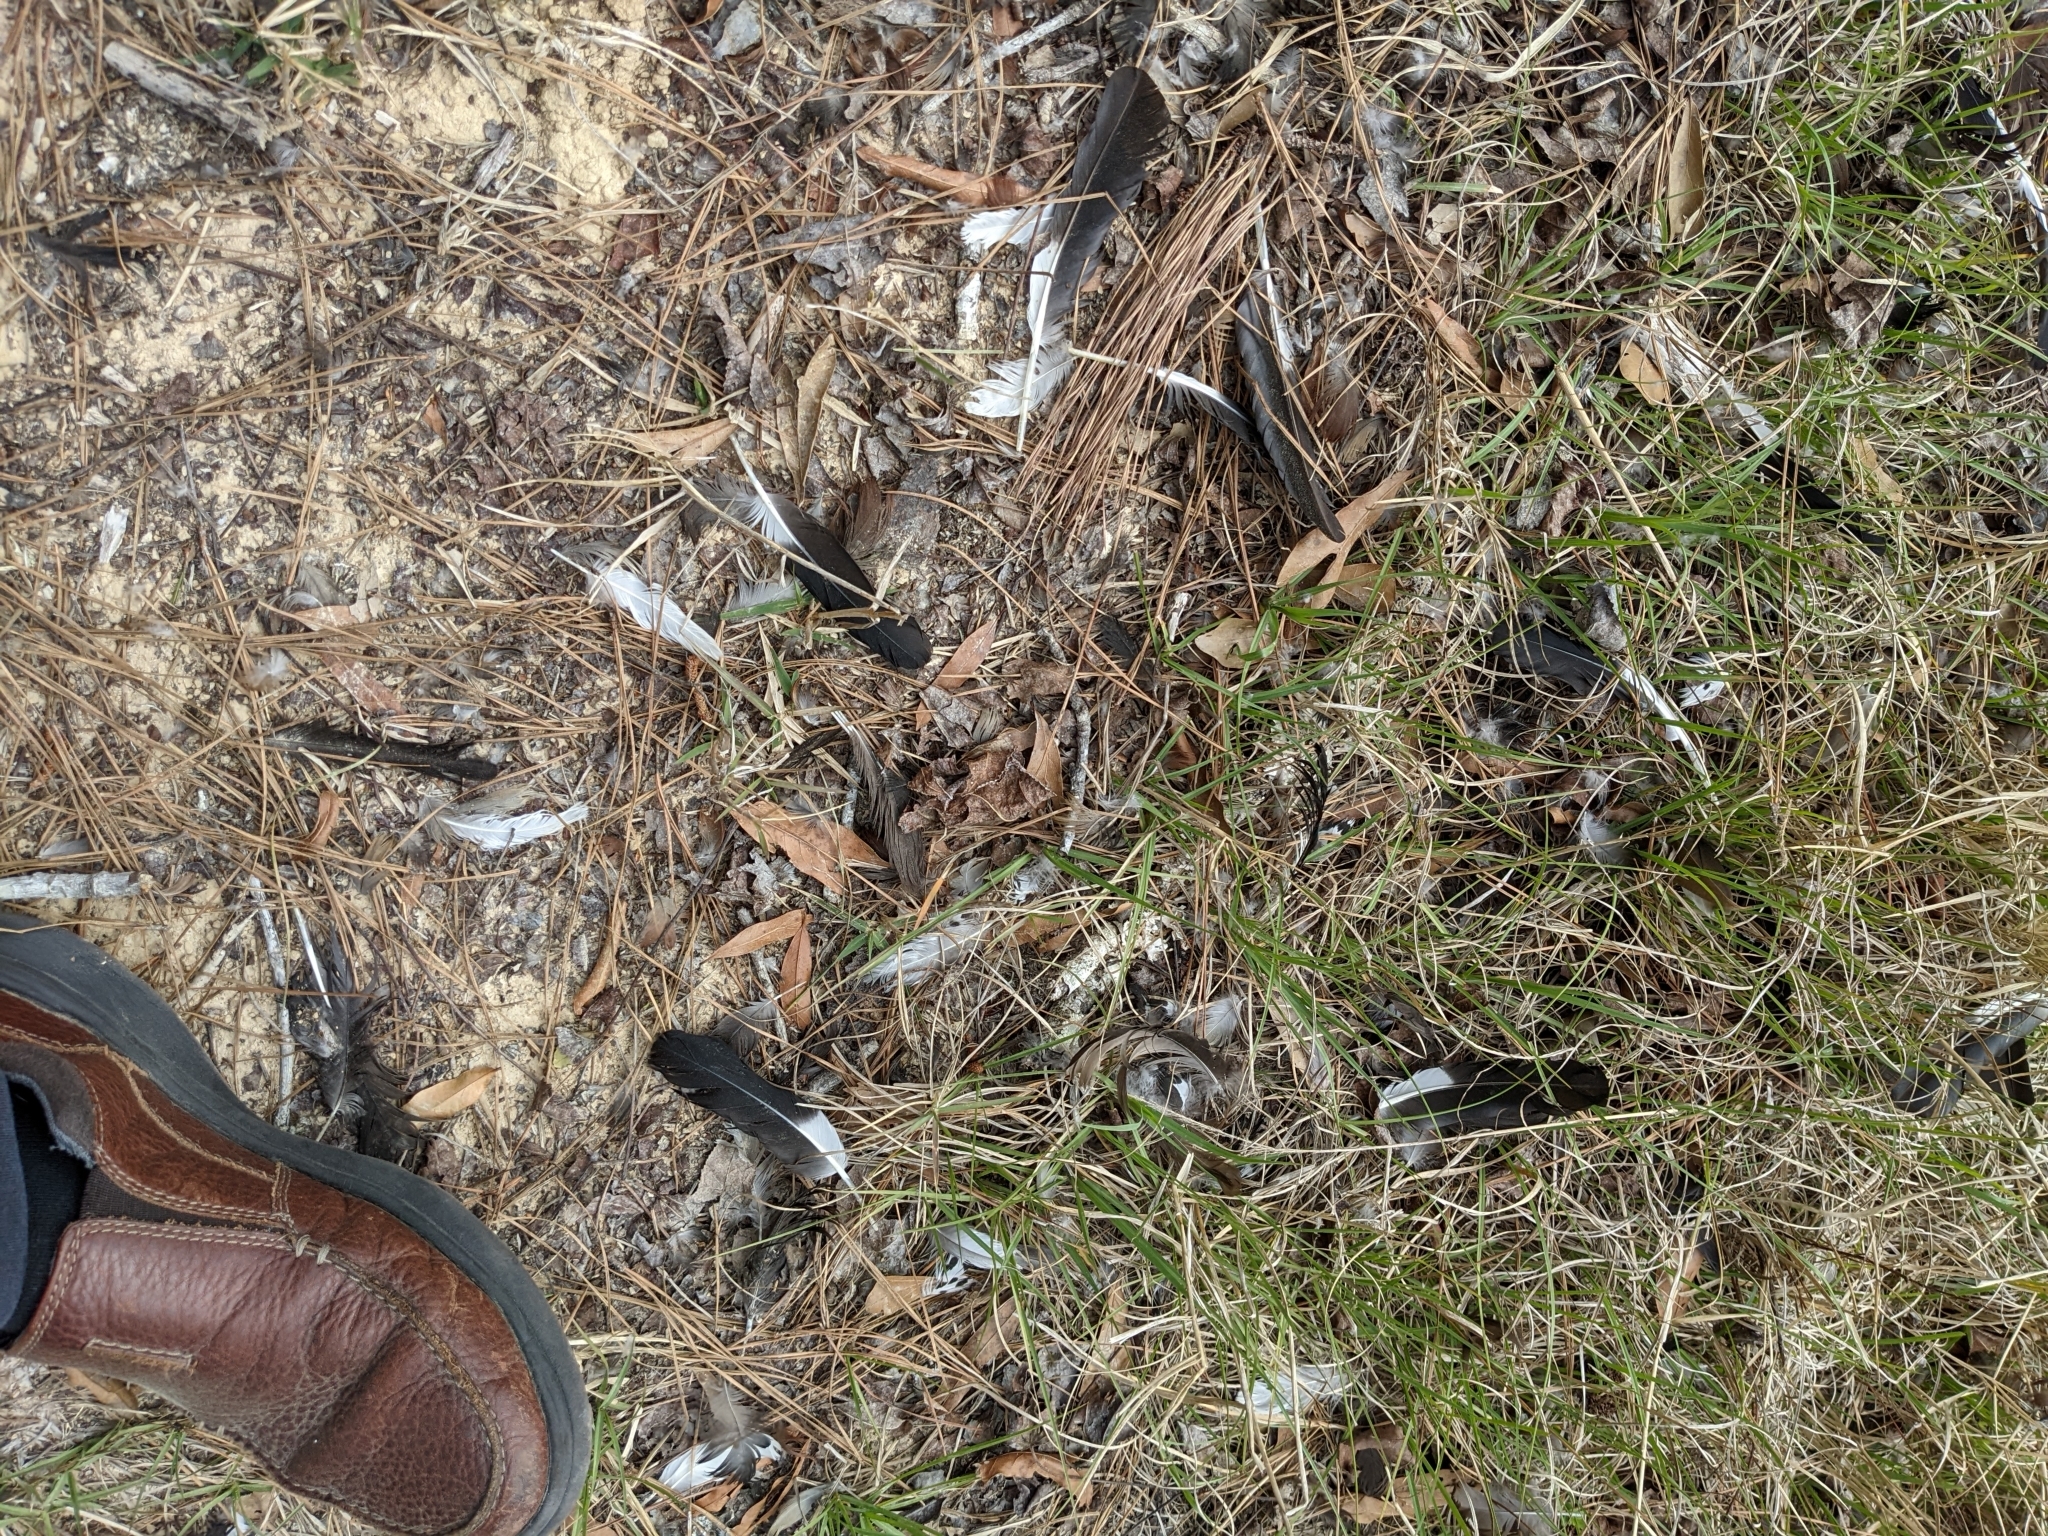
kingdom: Animalia
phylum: Chordata
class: Aves
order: Anseriformes
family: Anatidae
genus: Dendrocygna
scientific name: Dendrocygna autumnalis
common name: Black-bellied whistling duck
